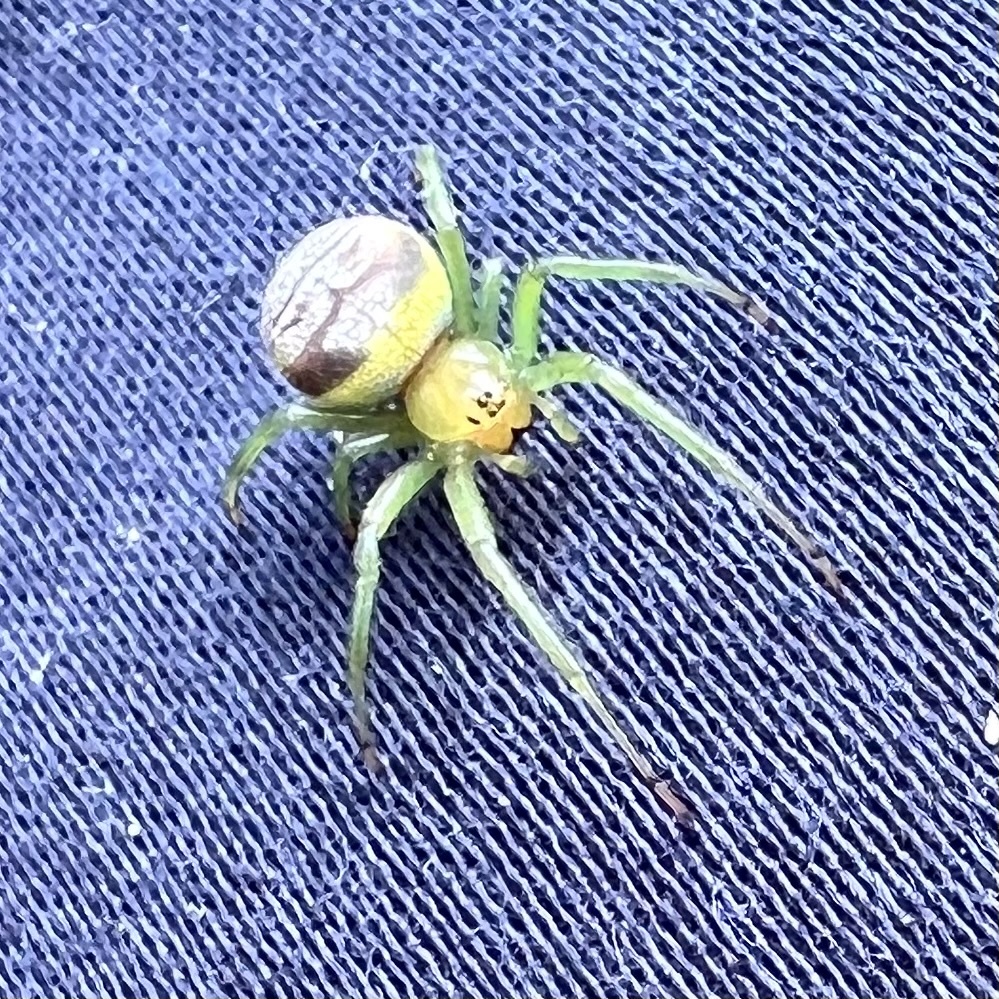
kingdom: Animalia
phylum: Arthropoda
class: Arachnida
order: Araneae
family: Araneidae
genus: Bijoaraneus
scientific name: Bijoaraneus praesignis
